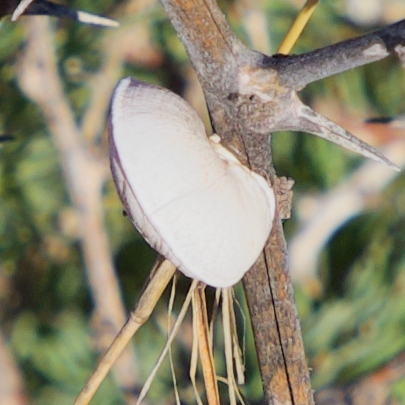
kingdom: Animalia
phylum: Mollusca
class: Gastropoda
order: Stylommatophora
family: Helicidae
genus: Theba
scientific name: Theba subdentata
